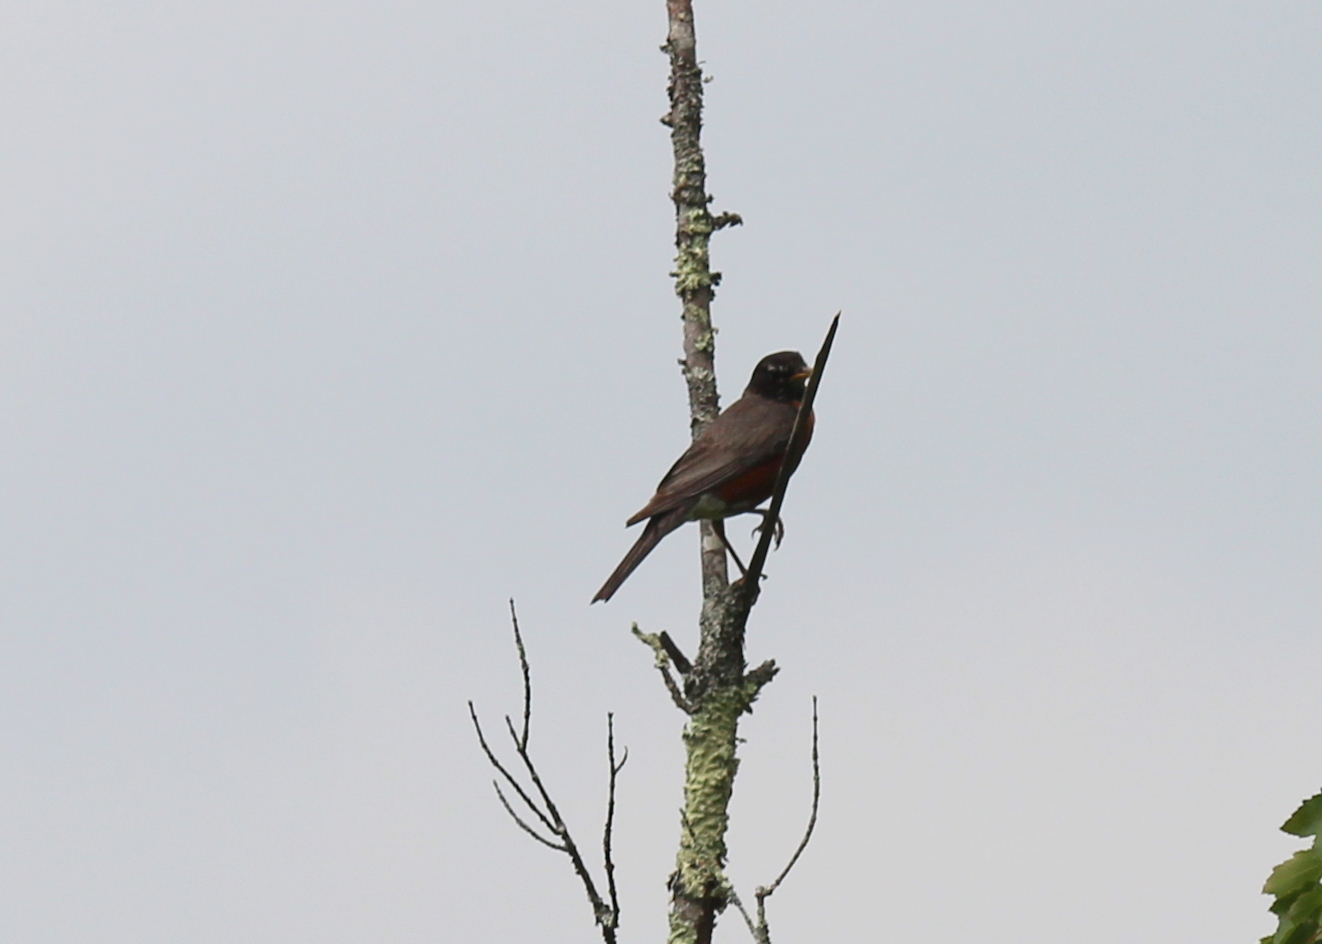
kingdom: Animalia
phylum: Chordata
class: Aves
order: Passeriformes
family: Turdidae
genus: Turdus
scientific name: Turdus migratorius
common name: American robin
